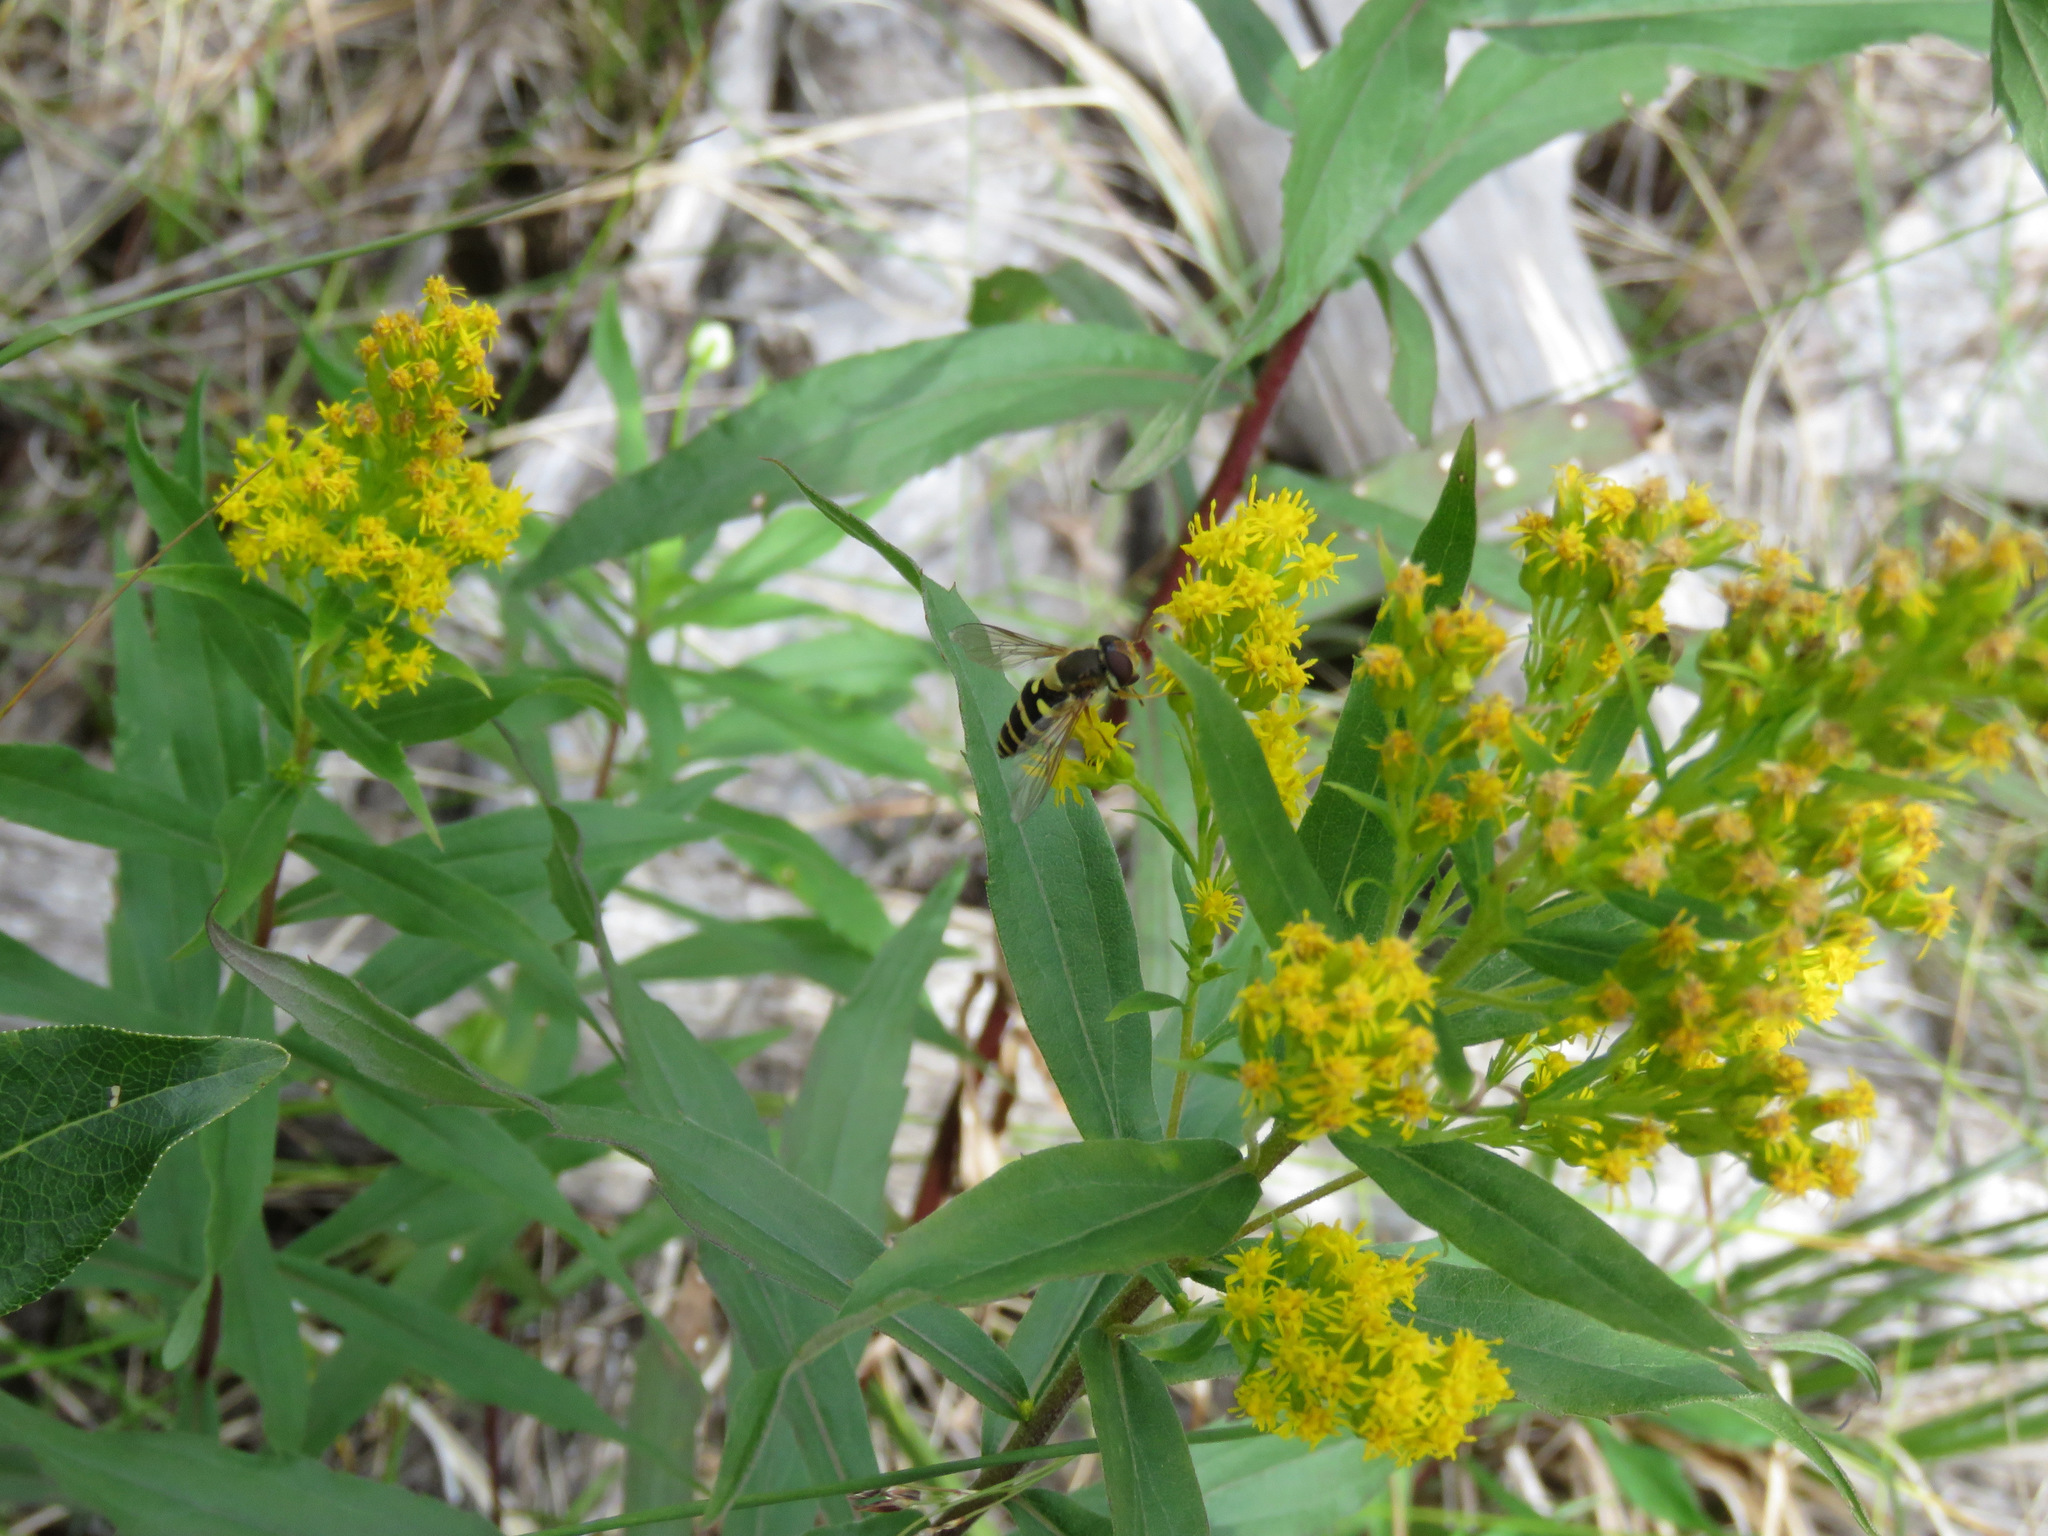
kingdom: Animalia
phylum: Arthropoda
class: Insecta
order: Diptera
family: Syrphidae
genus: Syrphus
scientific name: Syrphus
